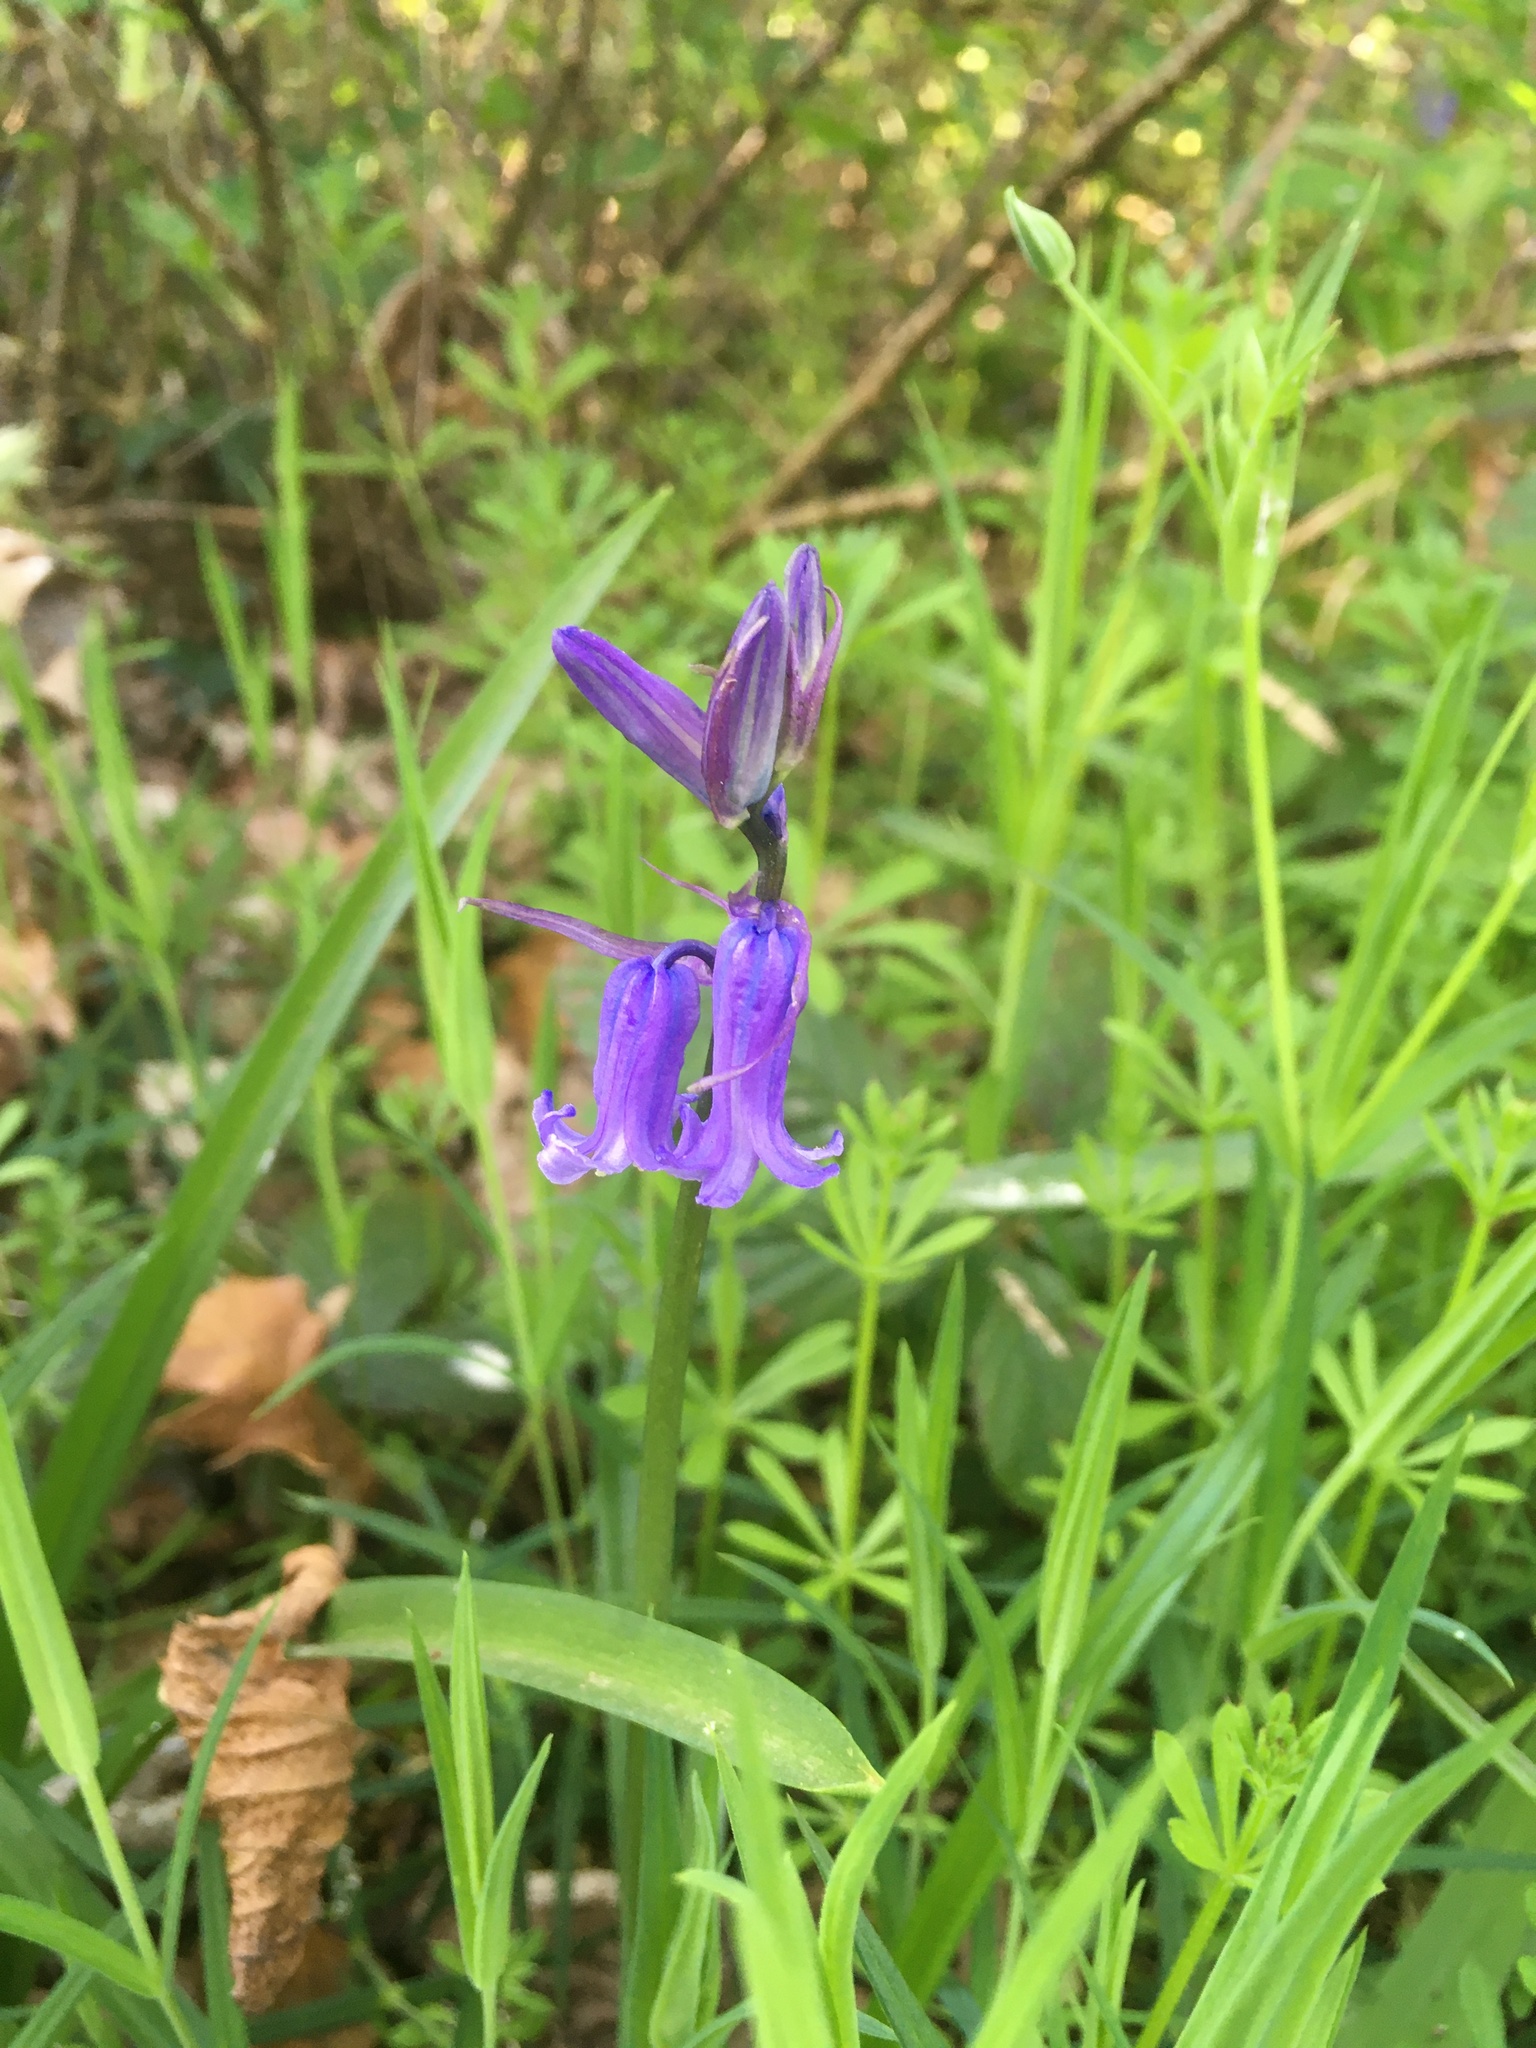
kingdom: Plantae
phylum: Tracheophyta
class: Liliopsida
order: Asparagales
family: Asparagaceae
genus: Hyacinthoides
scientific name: Hyacinthoides non-scripta
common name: Bluebell
